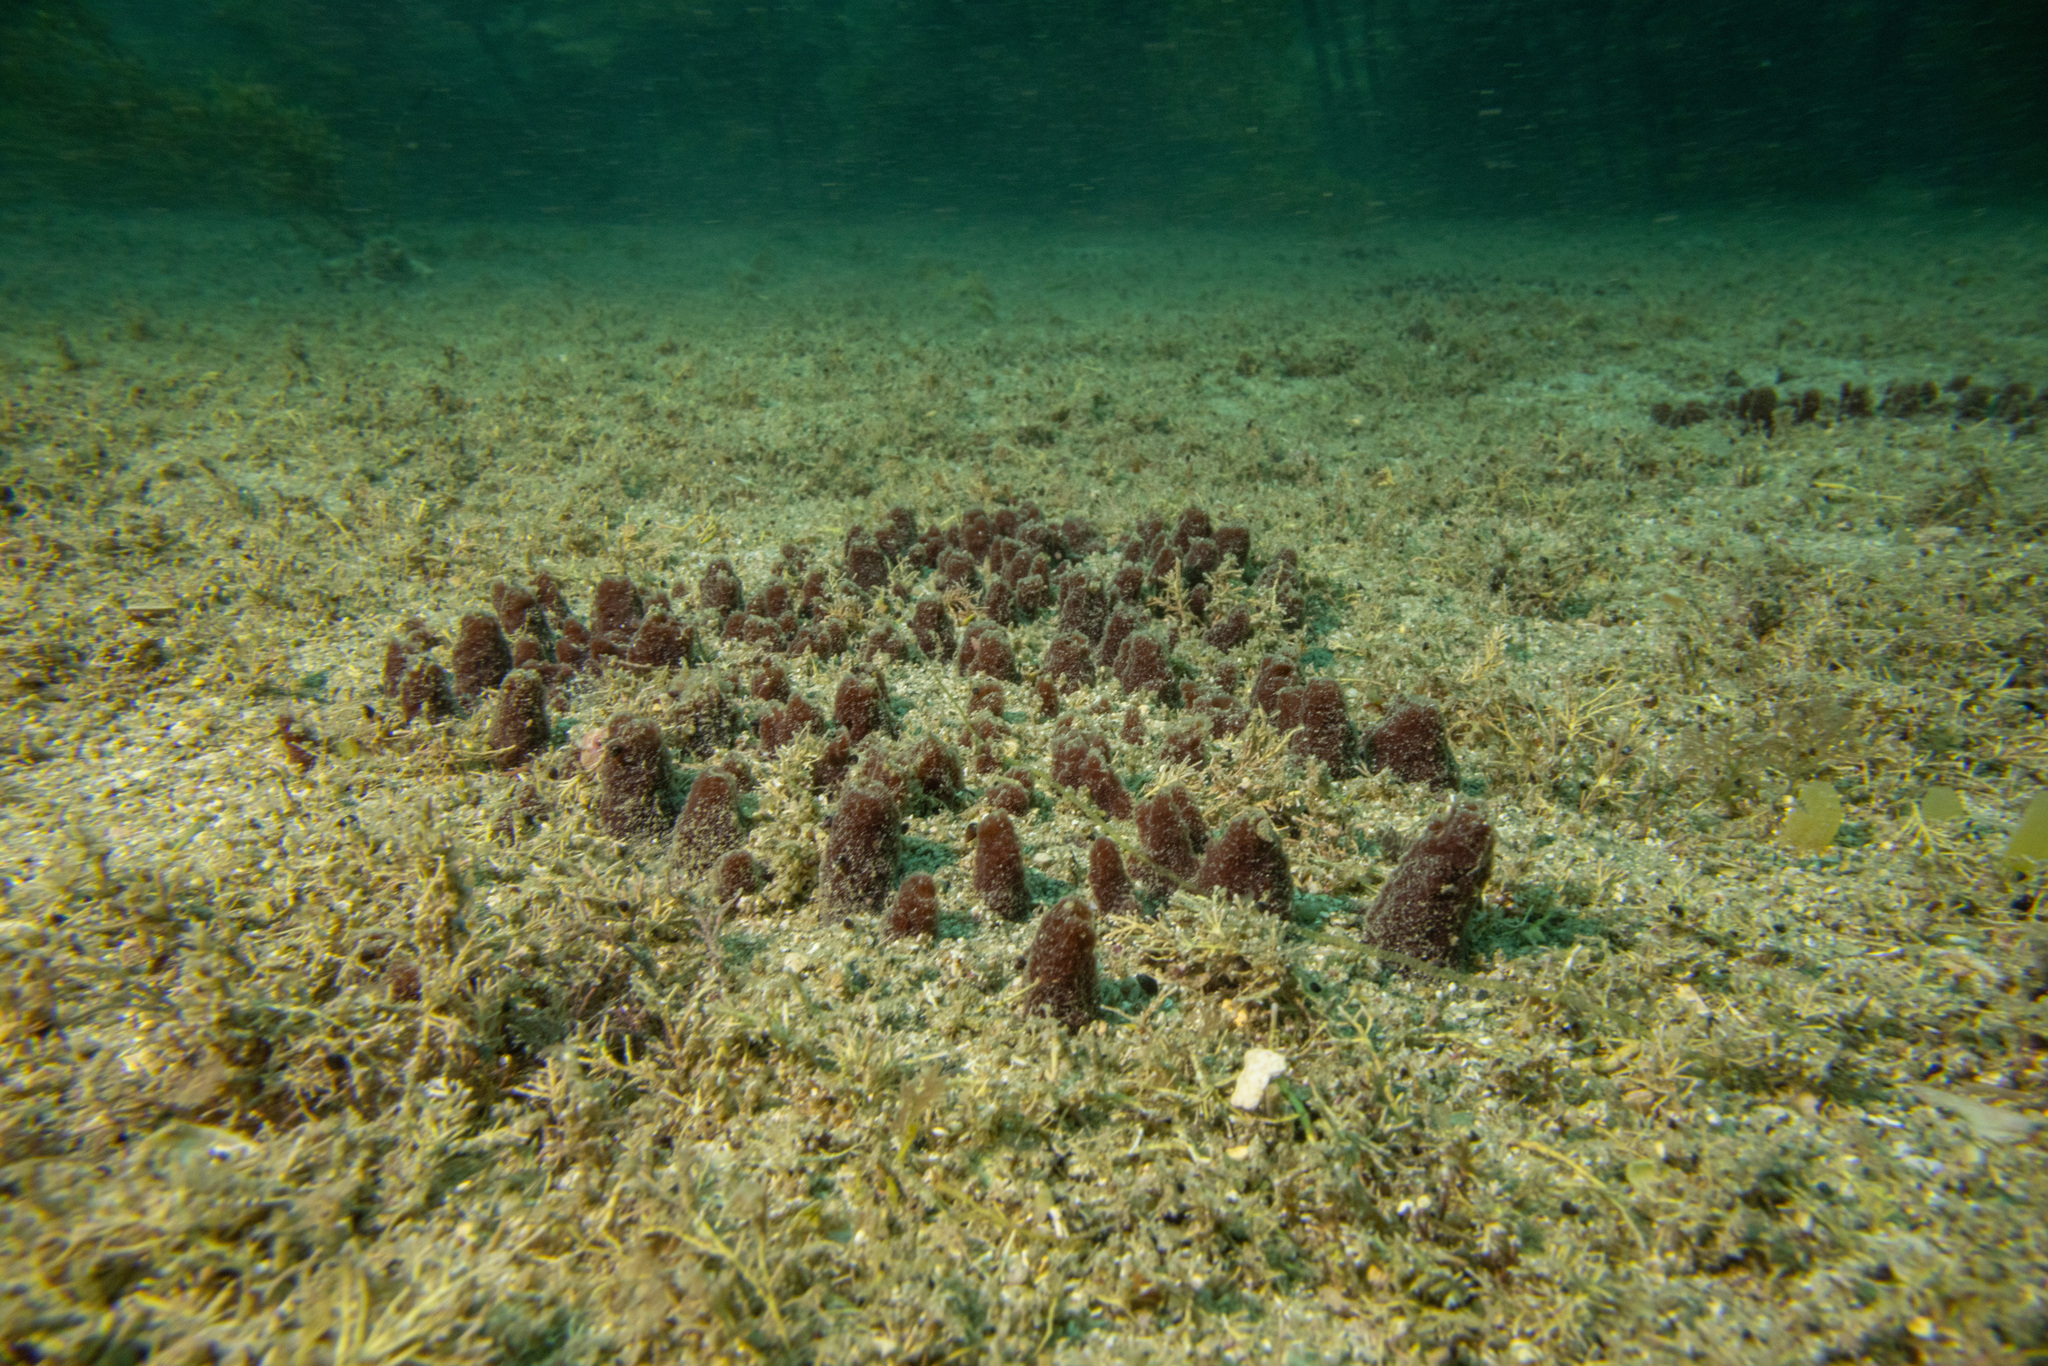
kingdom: Animalia
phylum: Porifera
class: Demospongiae
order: Biemnida
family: Biemnidae
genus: Biemna
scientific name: Biemna rufescens
